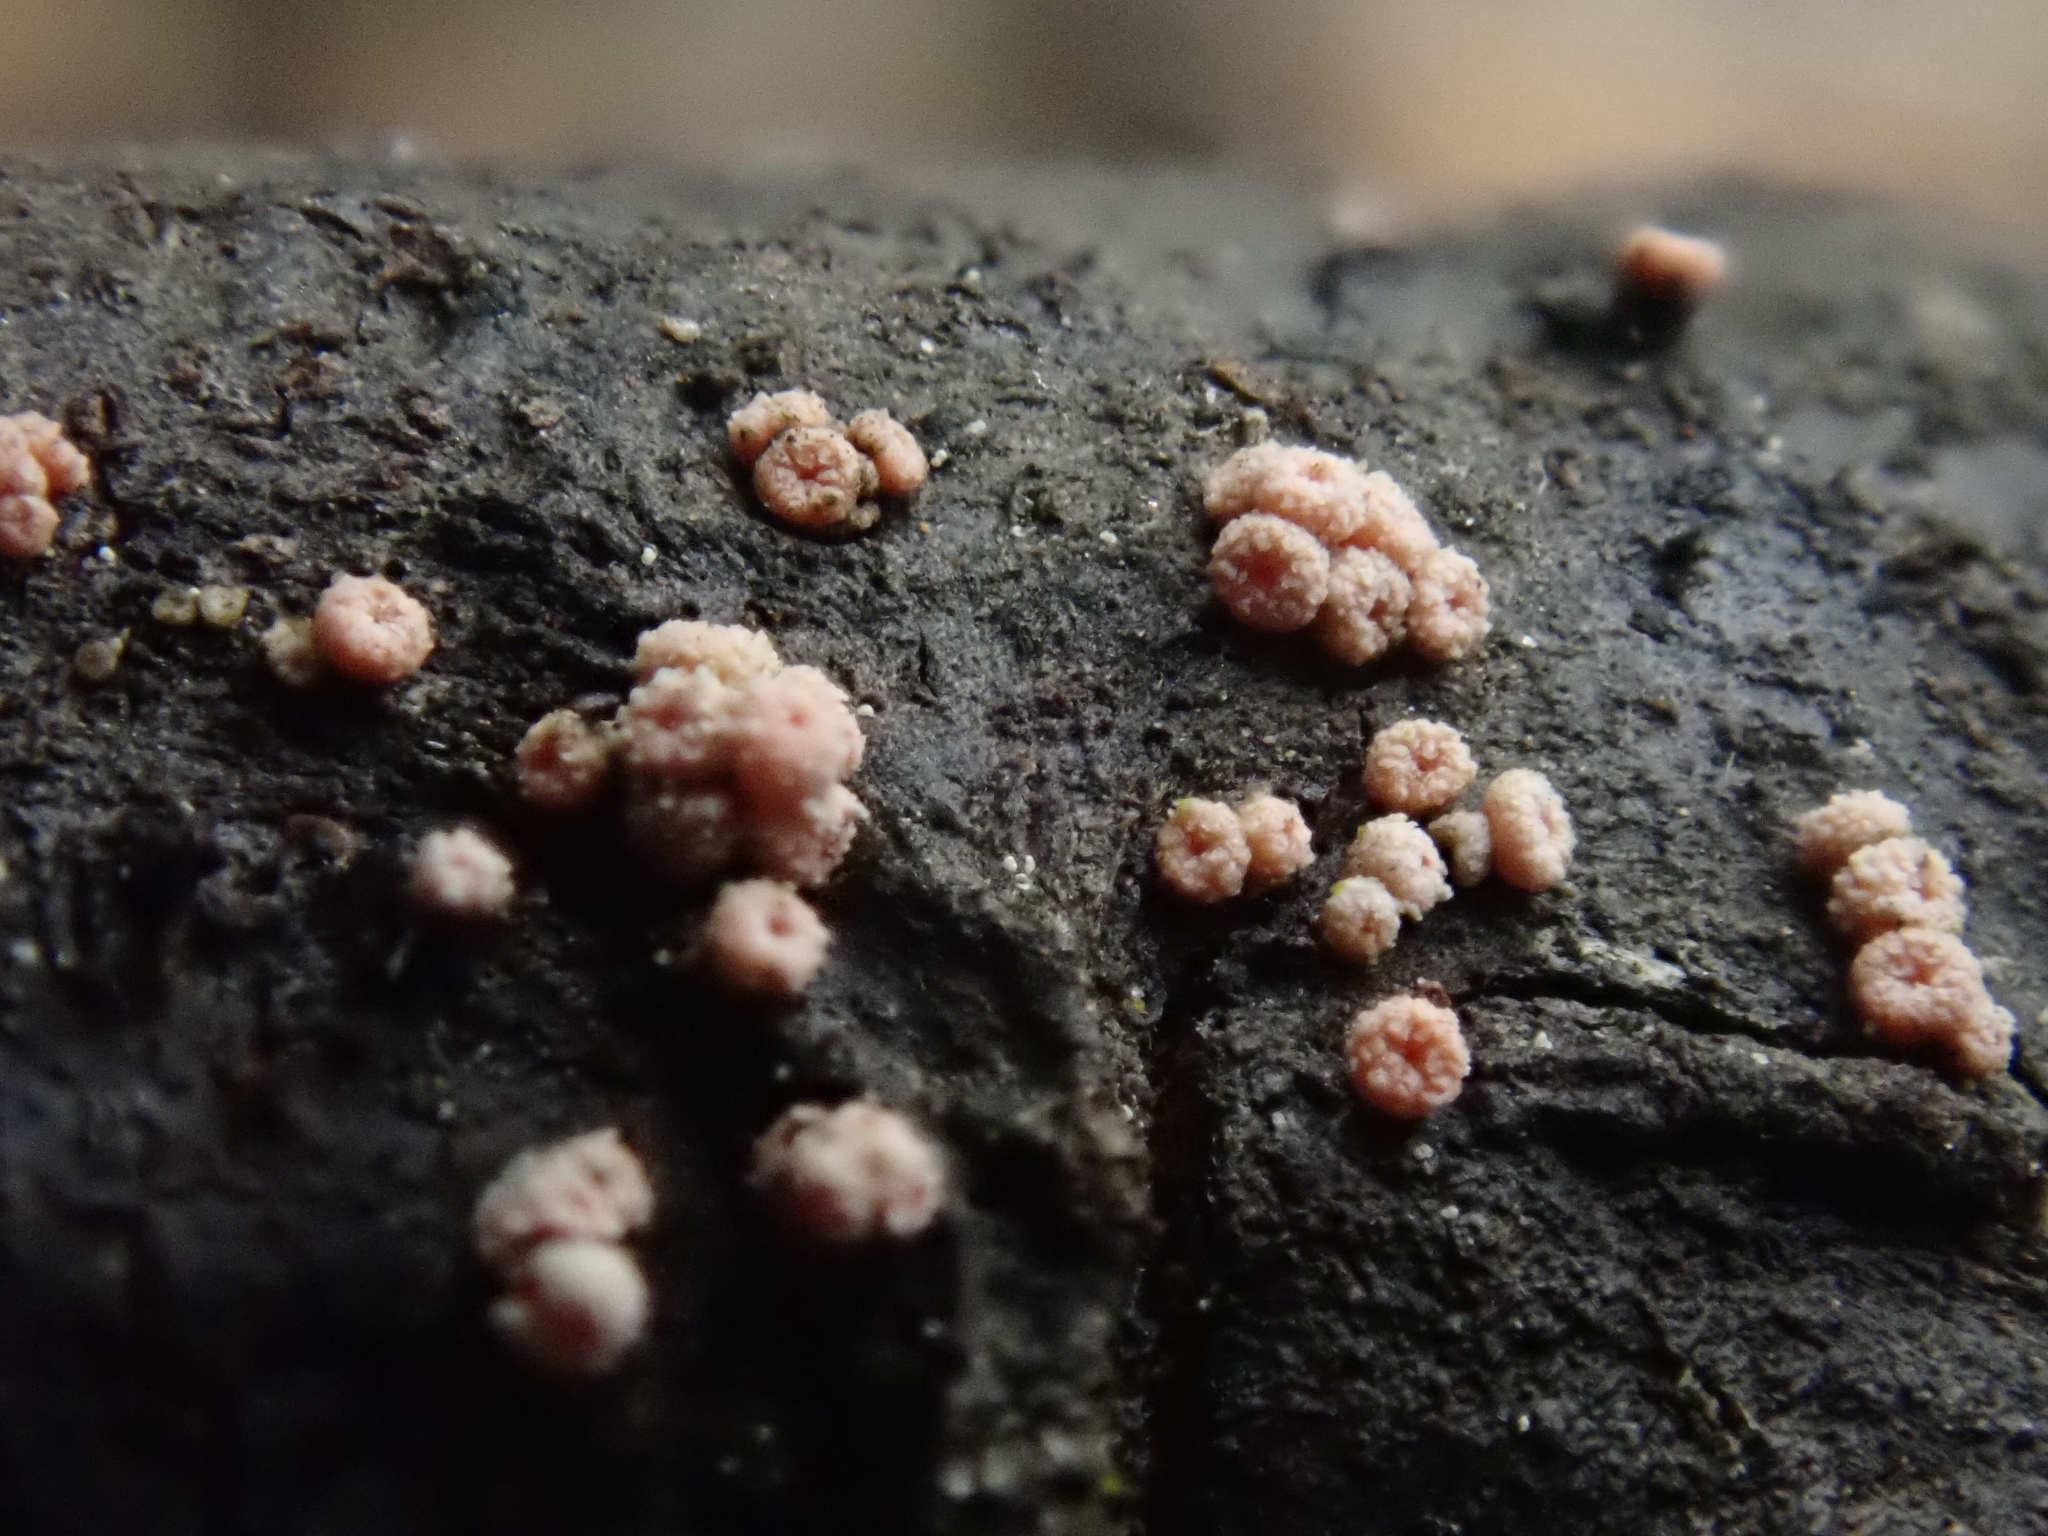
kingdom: Fungi
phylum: Ascomycota
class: Sordariomycetes
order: Hypocreales
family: Bionectriaceae
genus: Bionectria
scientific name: Bionectria ralfsii
